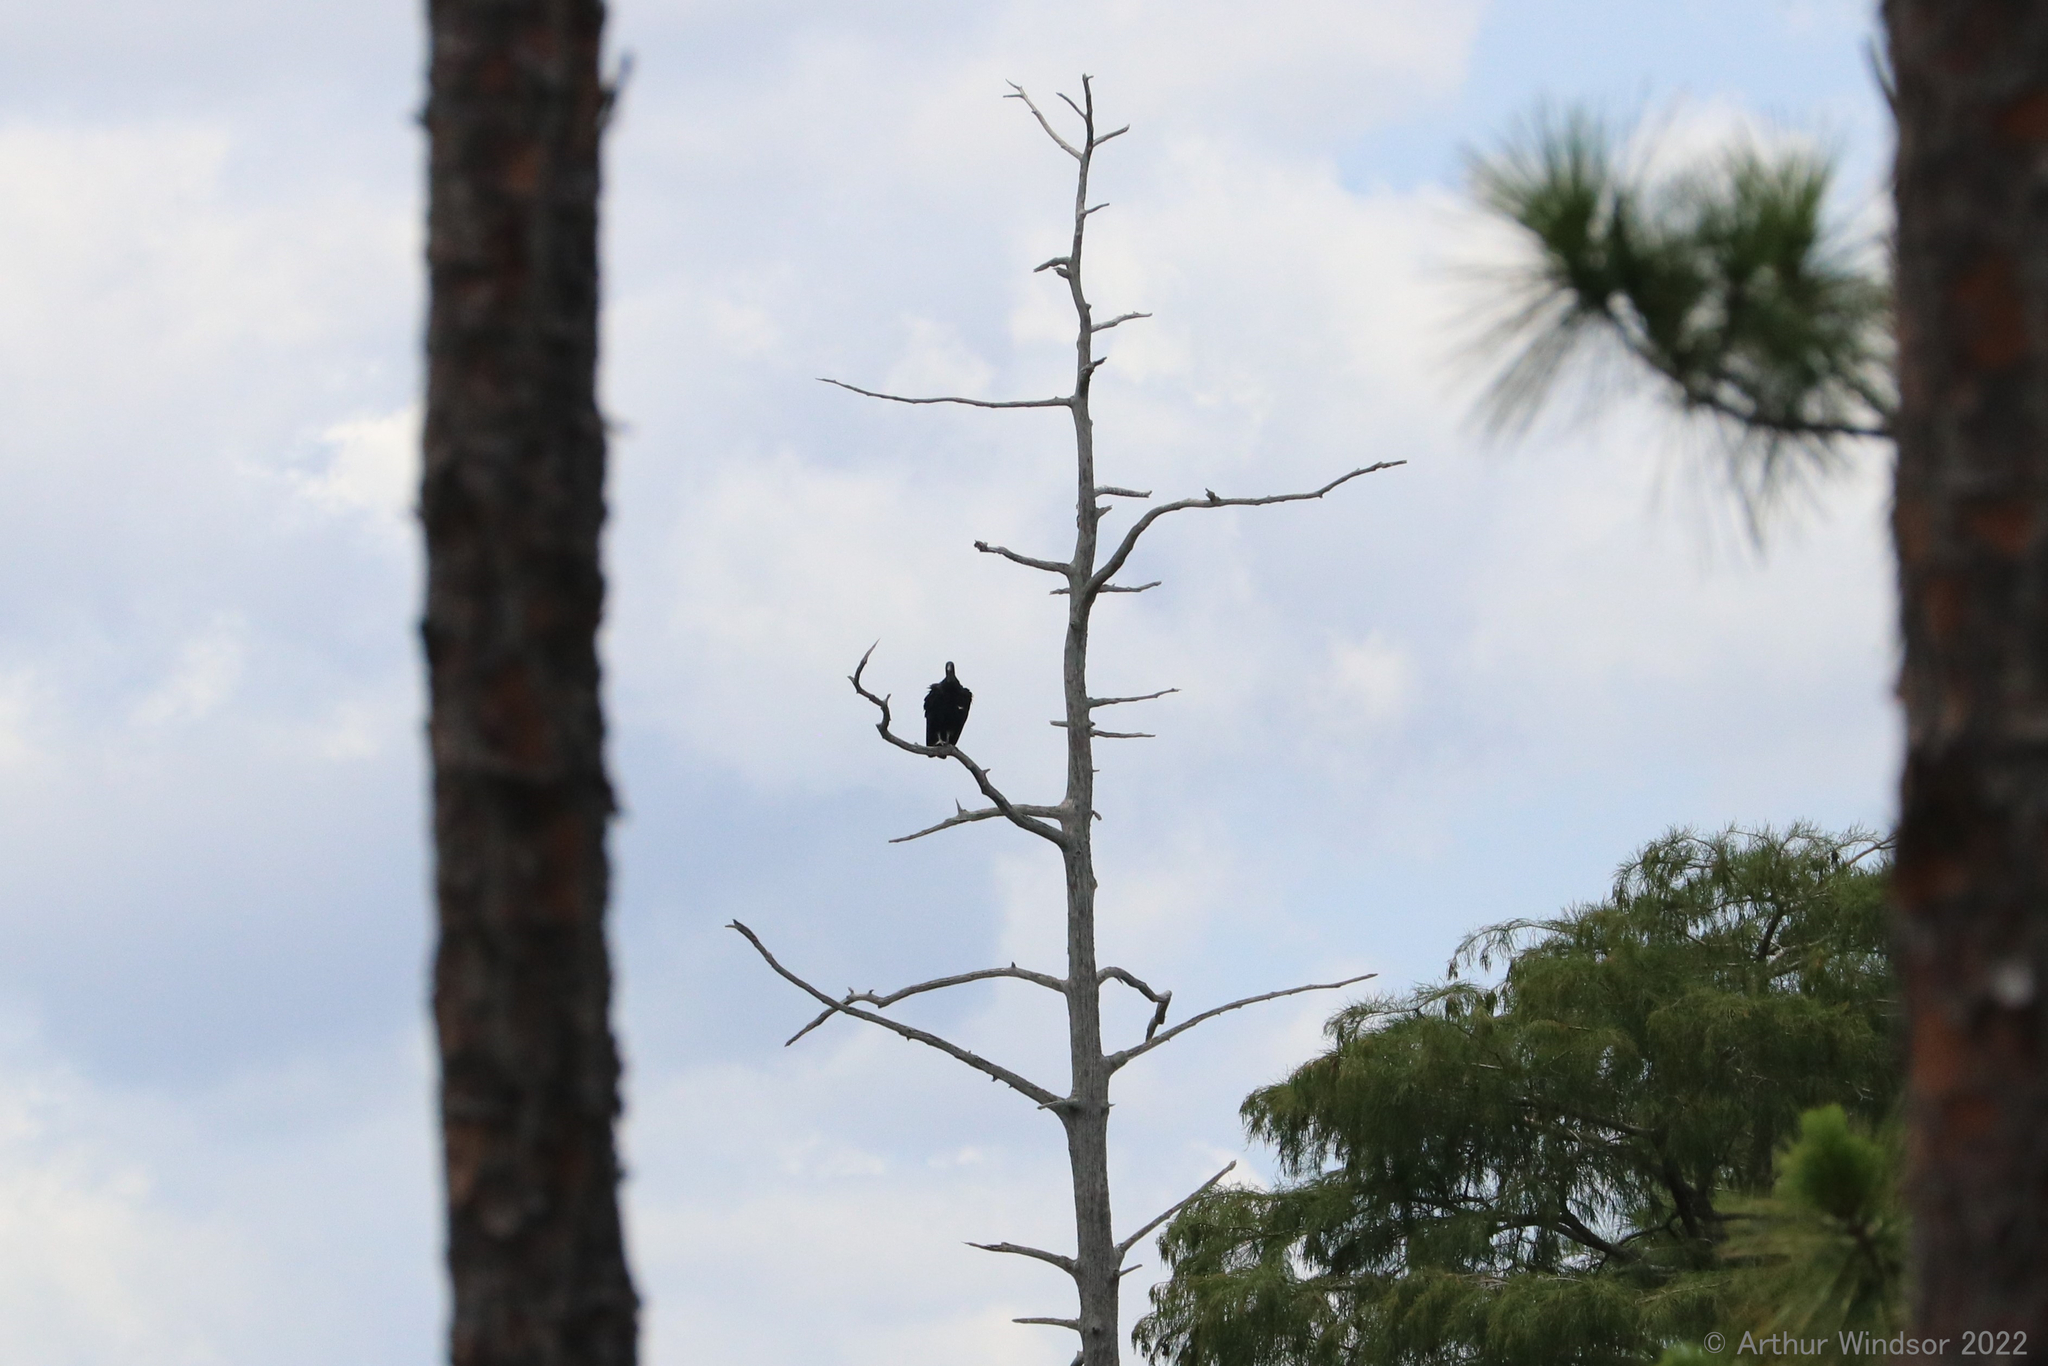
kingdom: Animalia
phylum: Chordata
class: Aves
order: Accipitriformes
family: Cathartidae
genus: Coragyps
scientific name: Coragyps atratus
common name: Black vulture
